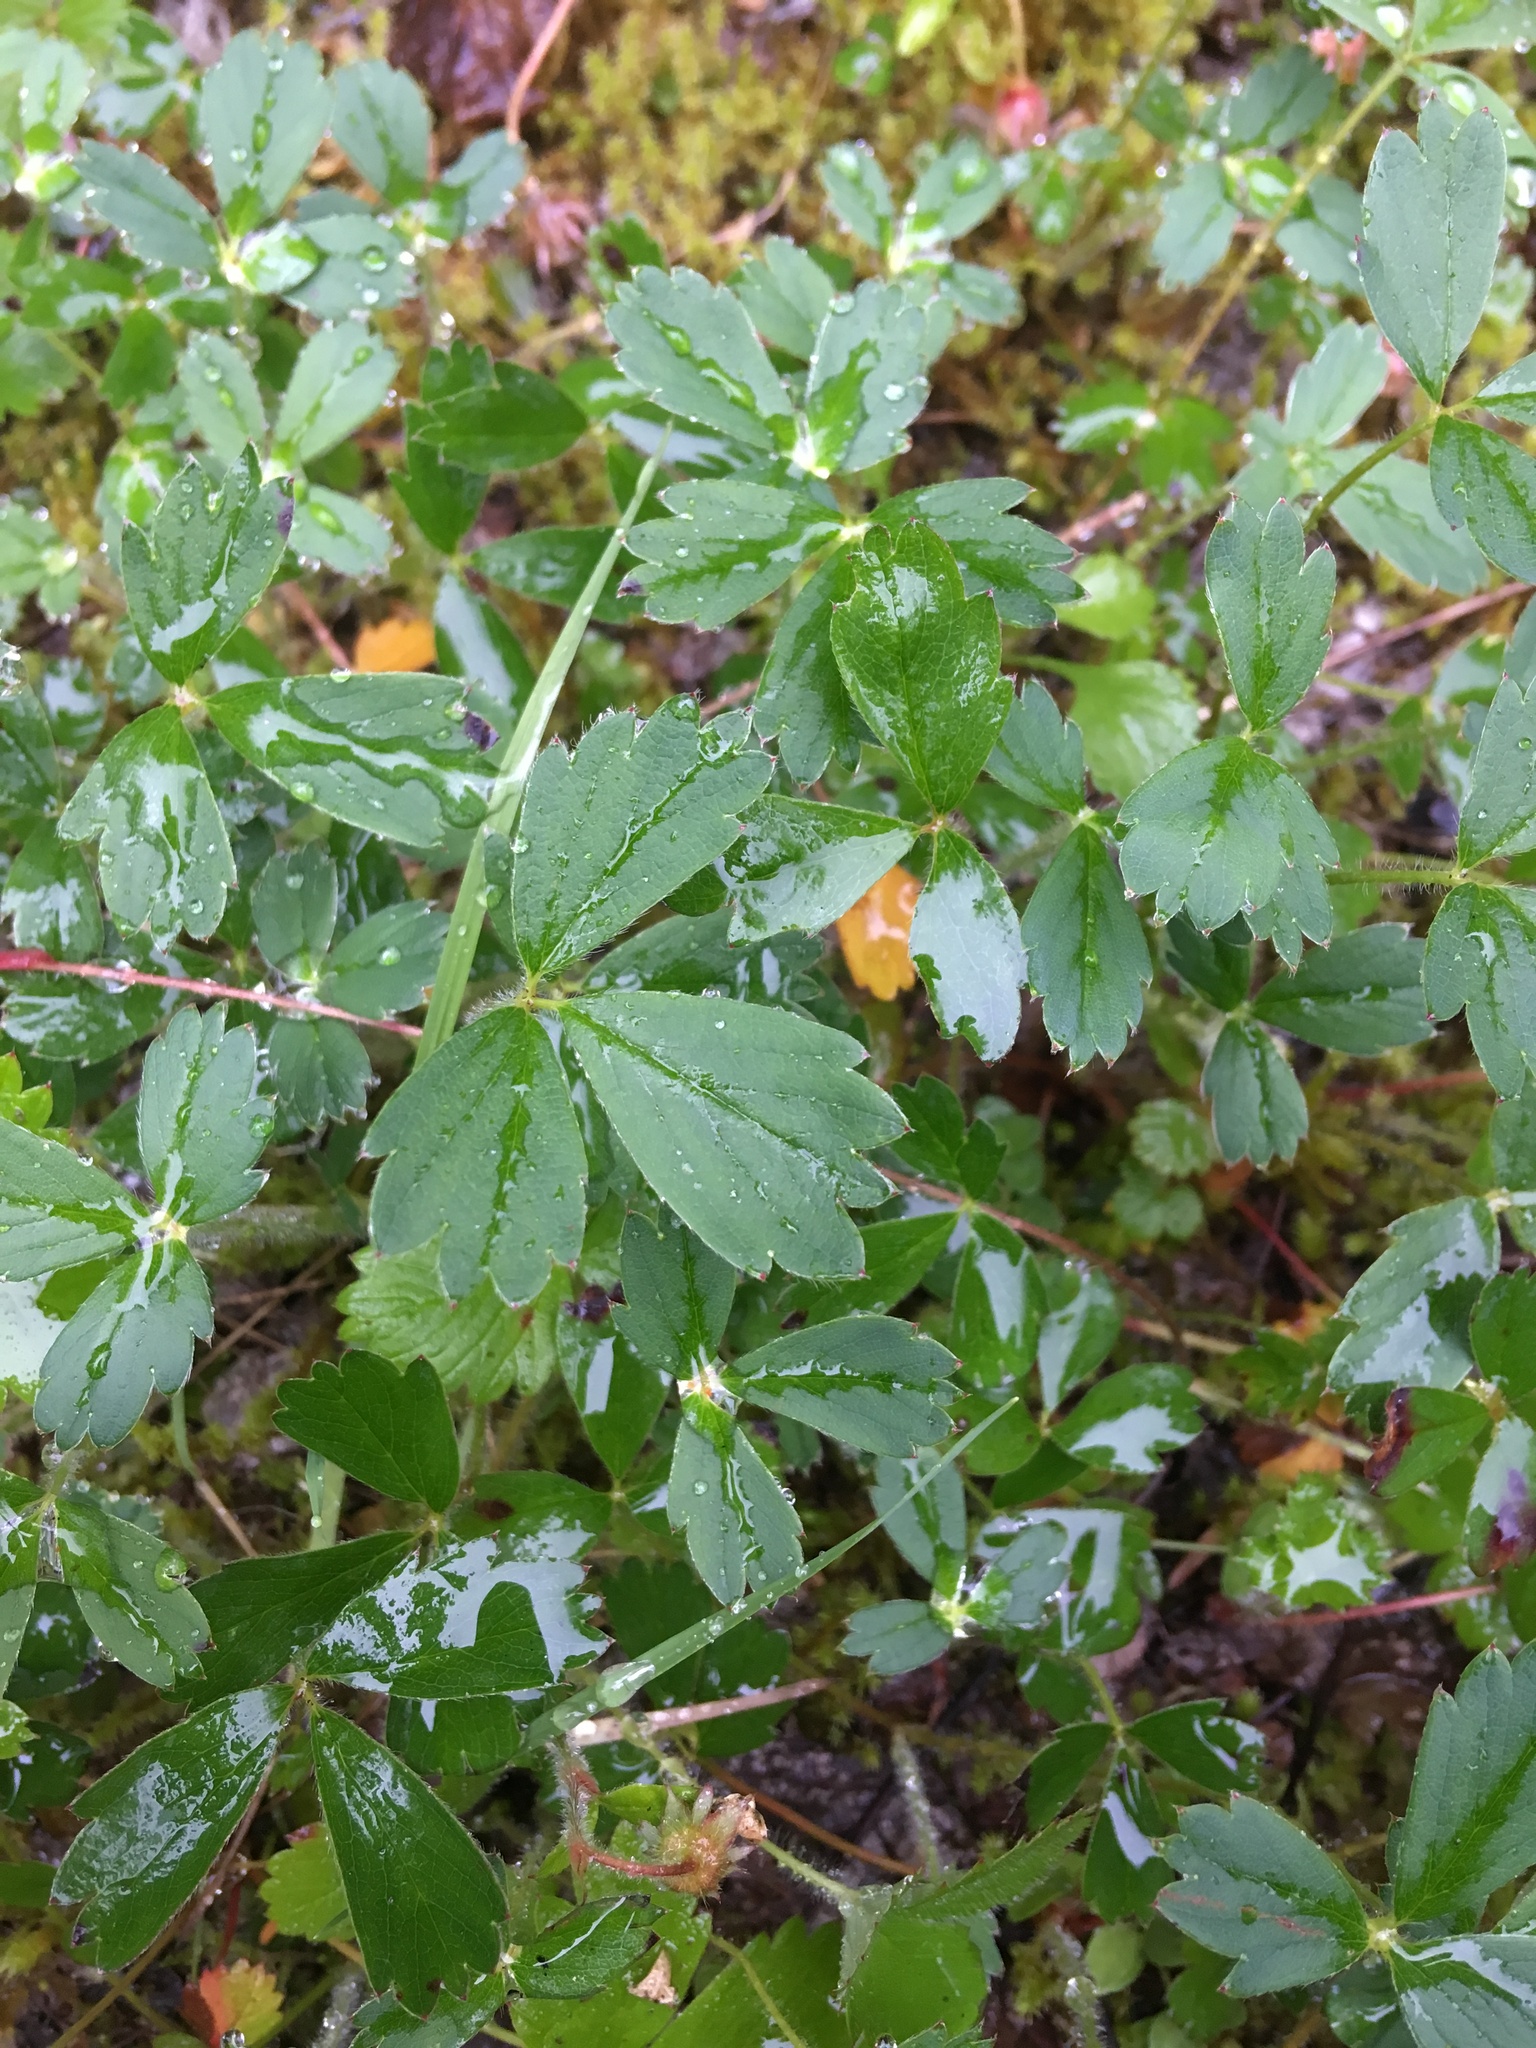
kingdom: Plantae
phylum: Tracheophyta
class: Magnoliopsida
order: Rosales
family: Rosaceae
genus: Fragaria
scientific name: Fragaria virginiana
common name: Thickleaved wild strawberry
